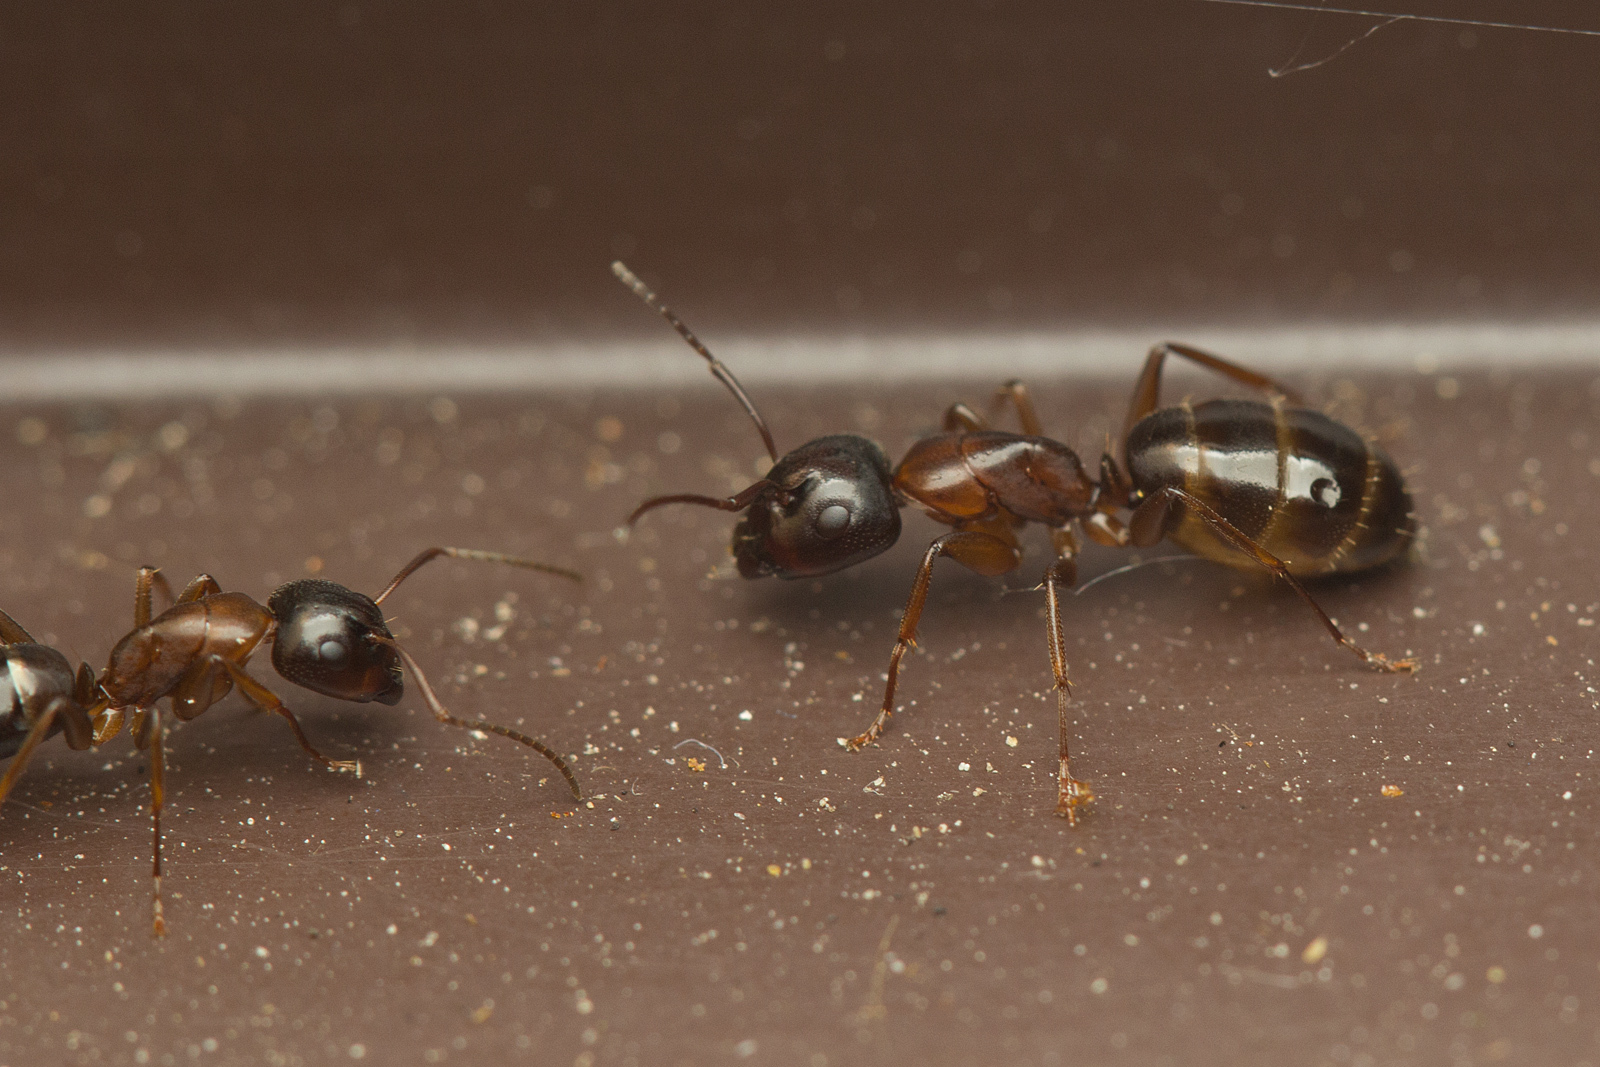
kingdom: Animalia
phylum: Arthropoda
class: Insecta
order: Hymenoptera
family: Formicidae
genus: Camponotus
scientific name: Camponotus fallax
